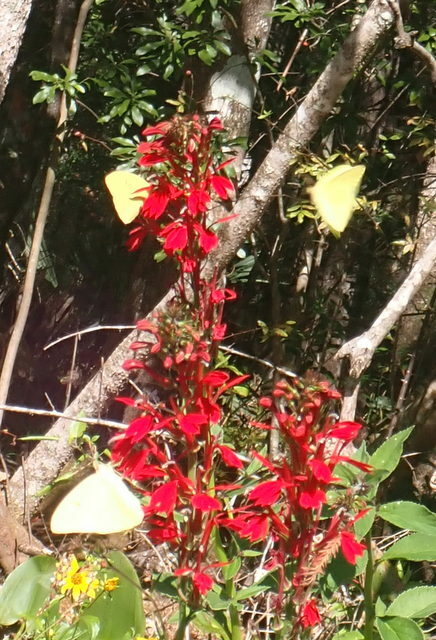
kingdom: Animalia
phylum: Arthropoda
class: Insecta
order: Lepidoptera
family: Pieridae
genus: Phoebis
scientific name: Phoebis sennae
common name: Cloudless sulphur
